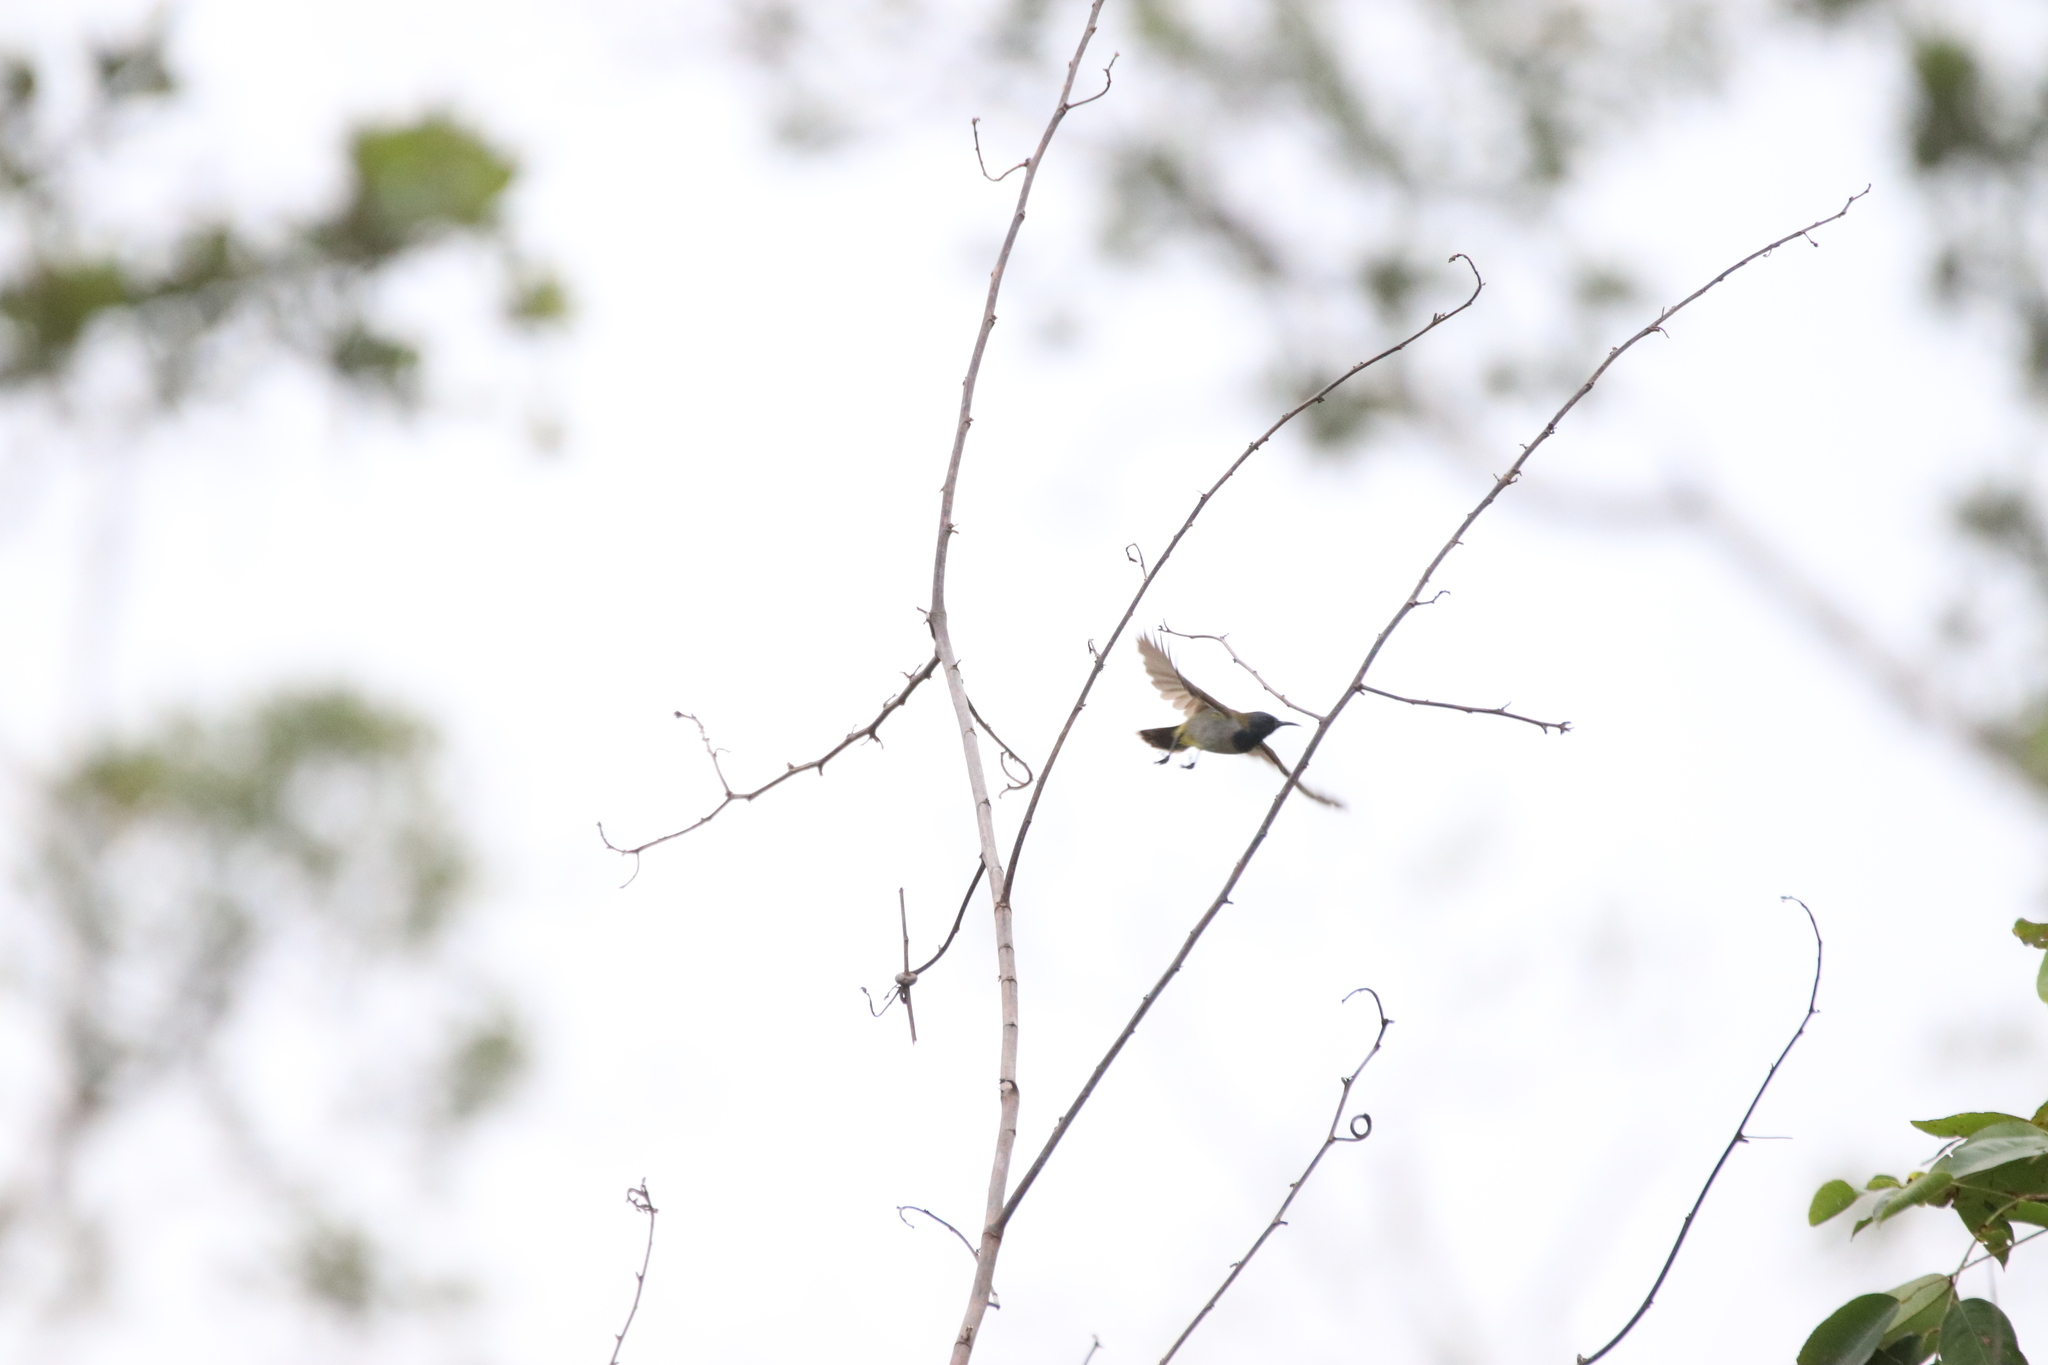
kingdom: Animalia
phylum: Chordata
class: Aves
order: Passeriformes
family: Nectariniidae
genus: Anabathmis
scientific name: Anabathmis reichenbachii
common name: Reichenbach's sunbird
